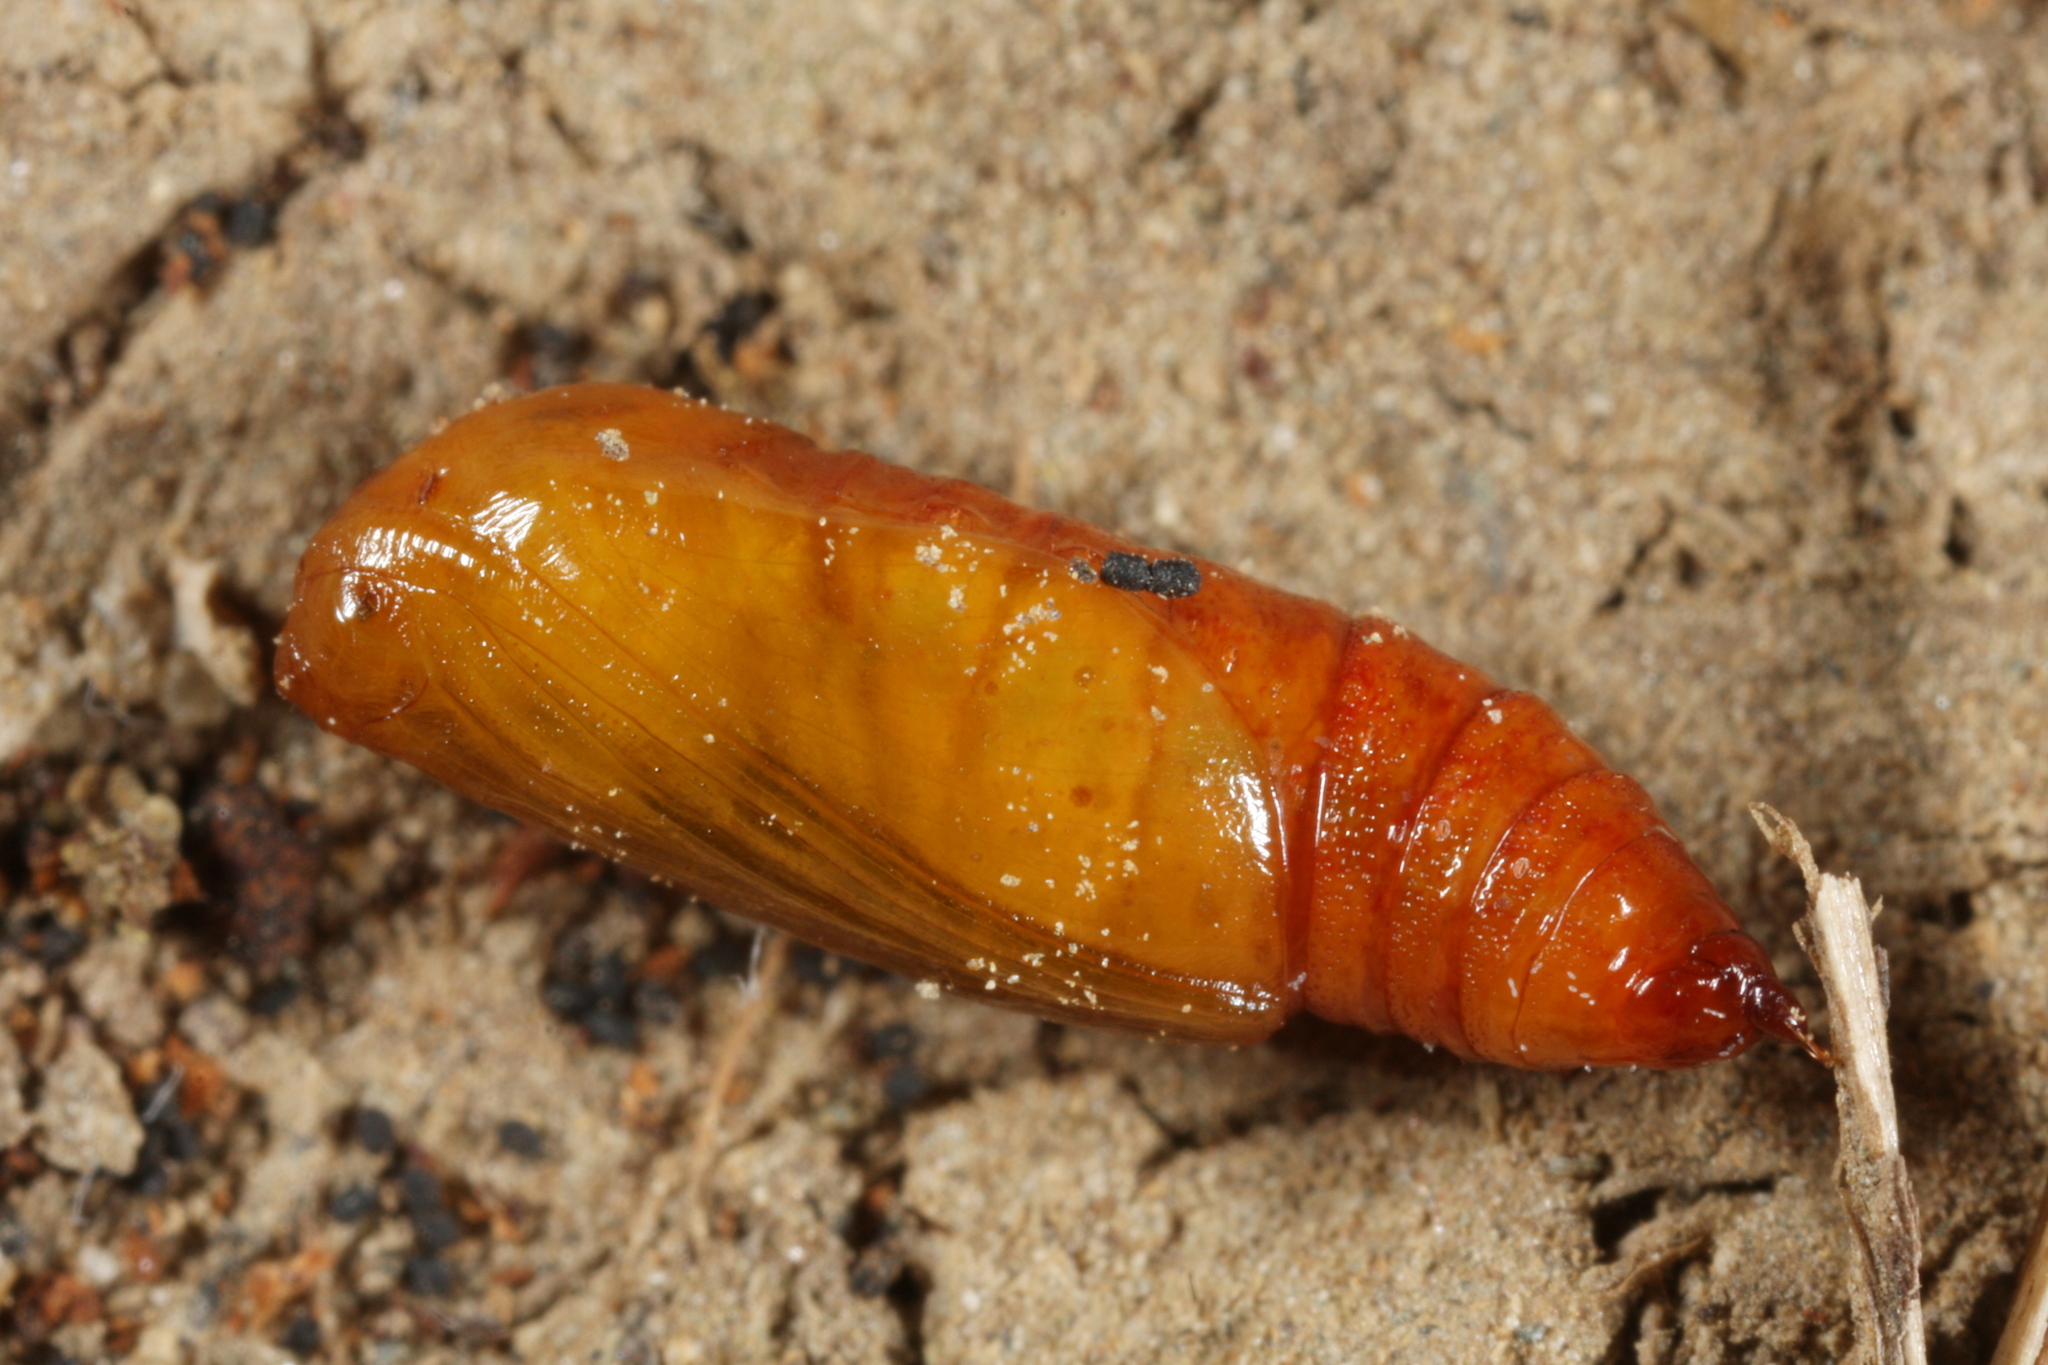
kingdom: Animalia
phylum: Arthropoda
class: Insecta
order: Lepidoptera
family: Geometridae
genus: Eupithecia
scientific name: Eupithecia subfuscata
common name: Grey pug
